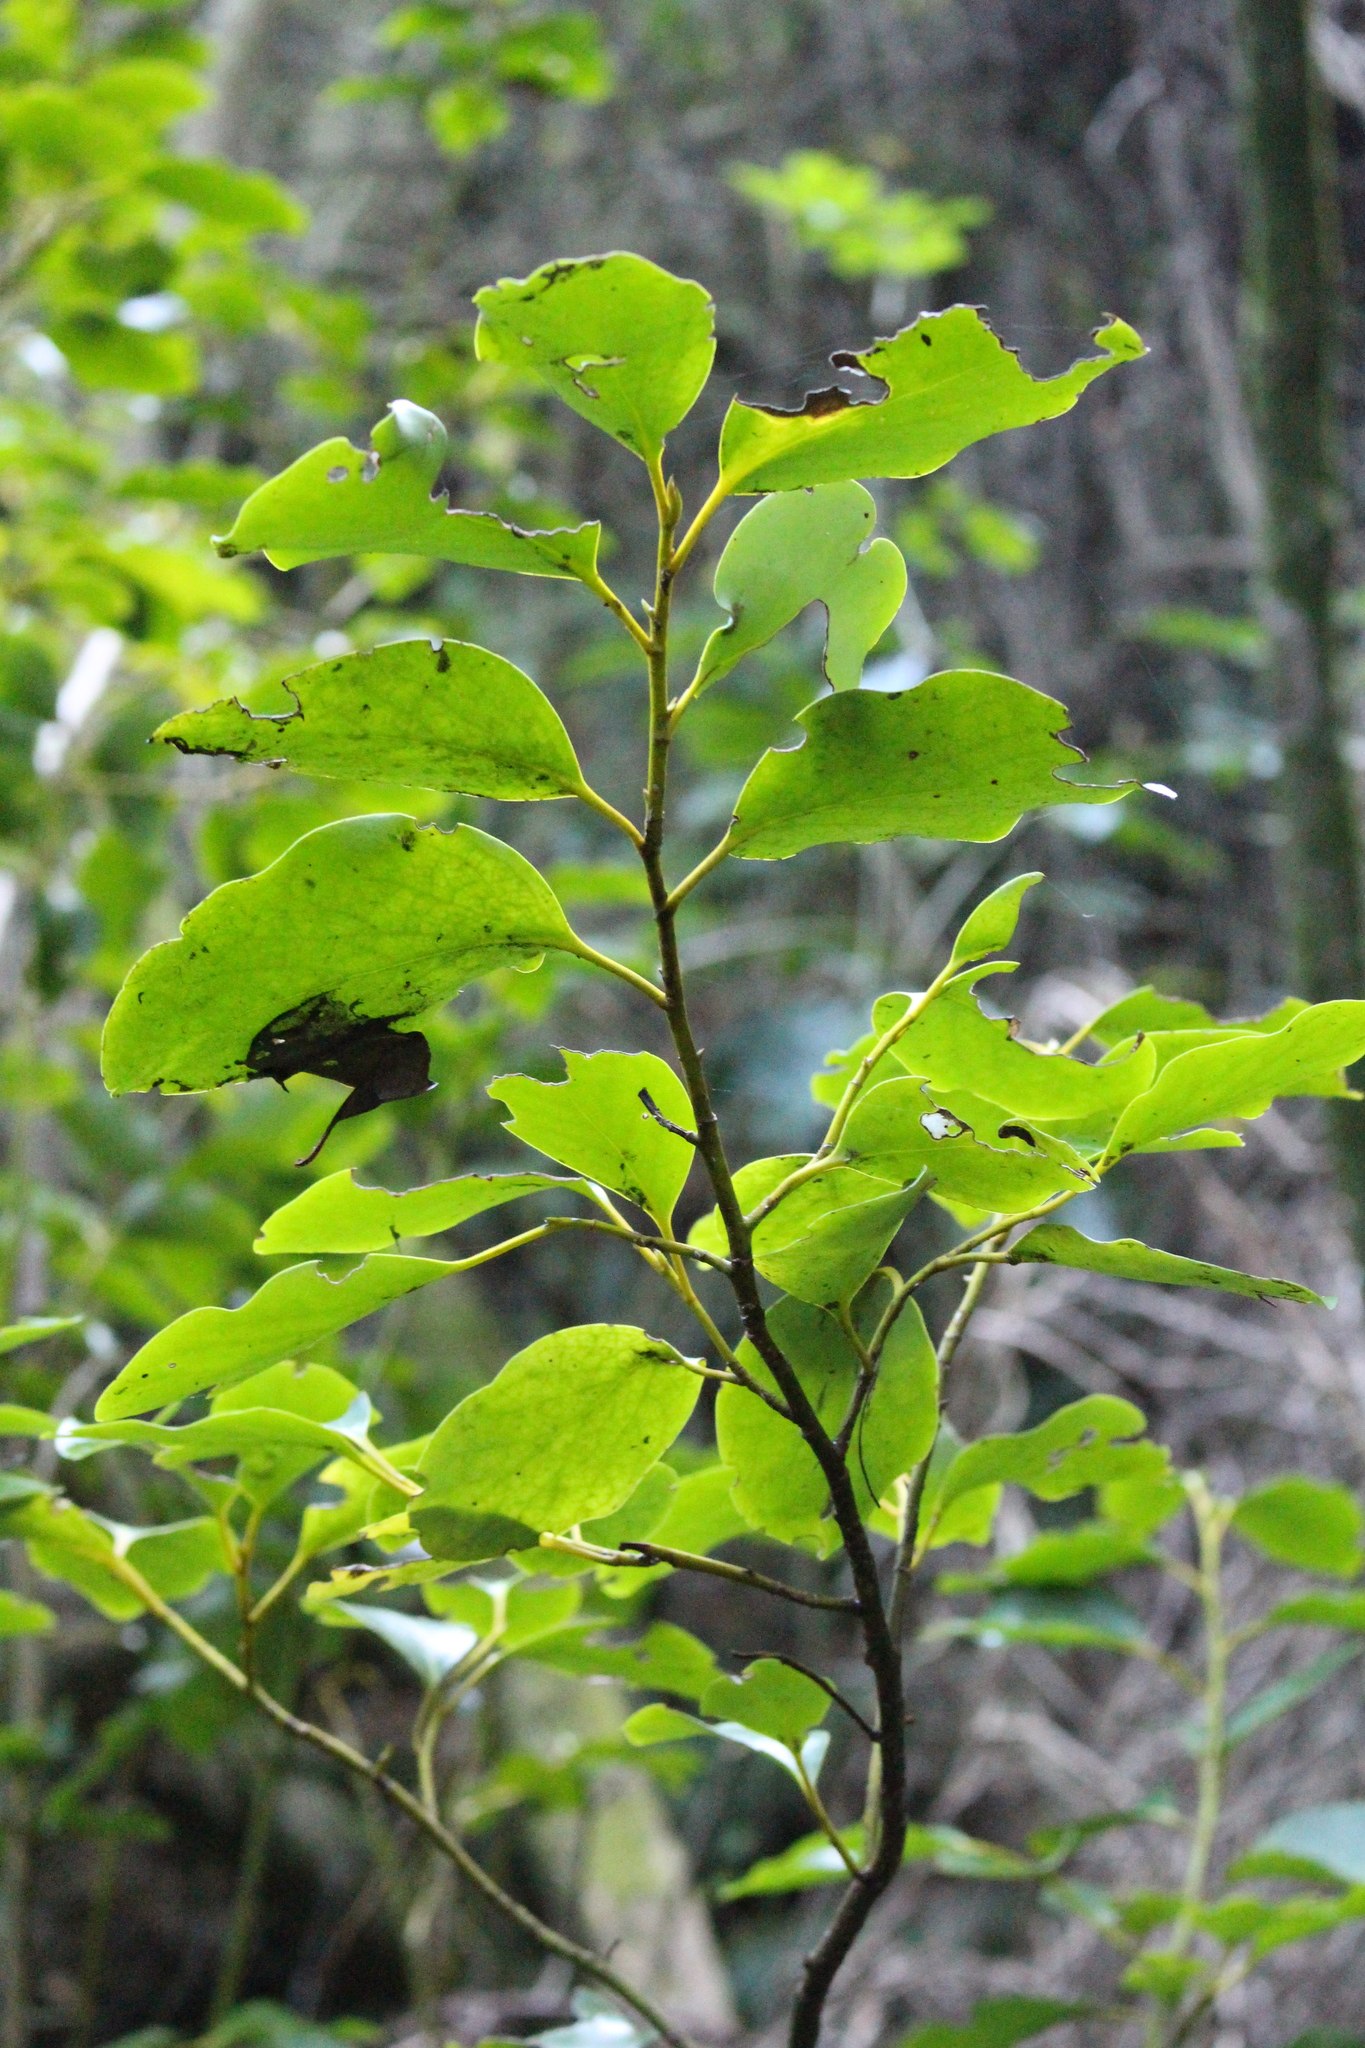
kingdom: Plantae
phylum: Tracheophyta
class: Magnoliopsida
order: Apiales
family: Griseliniaceae
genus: Griselinia
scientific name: Griselinia littoralis
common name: New zealand broadleaf
